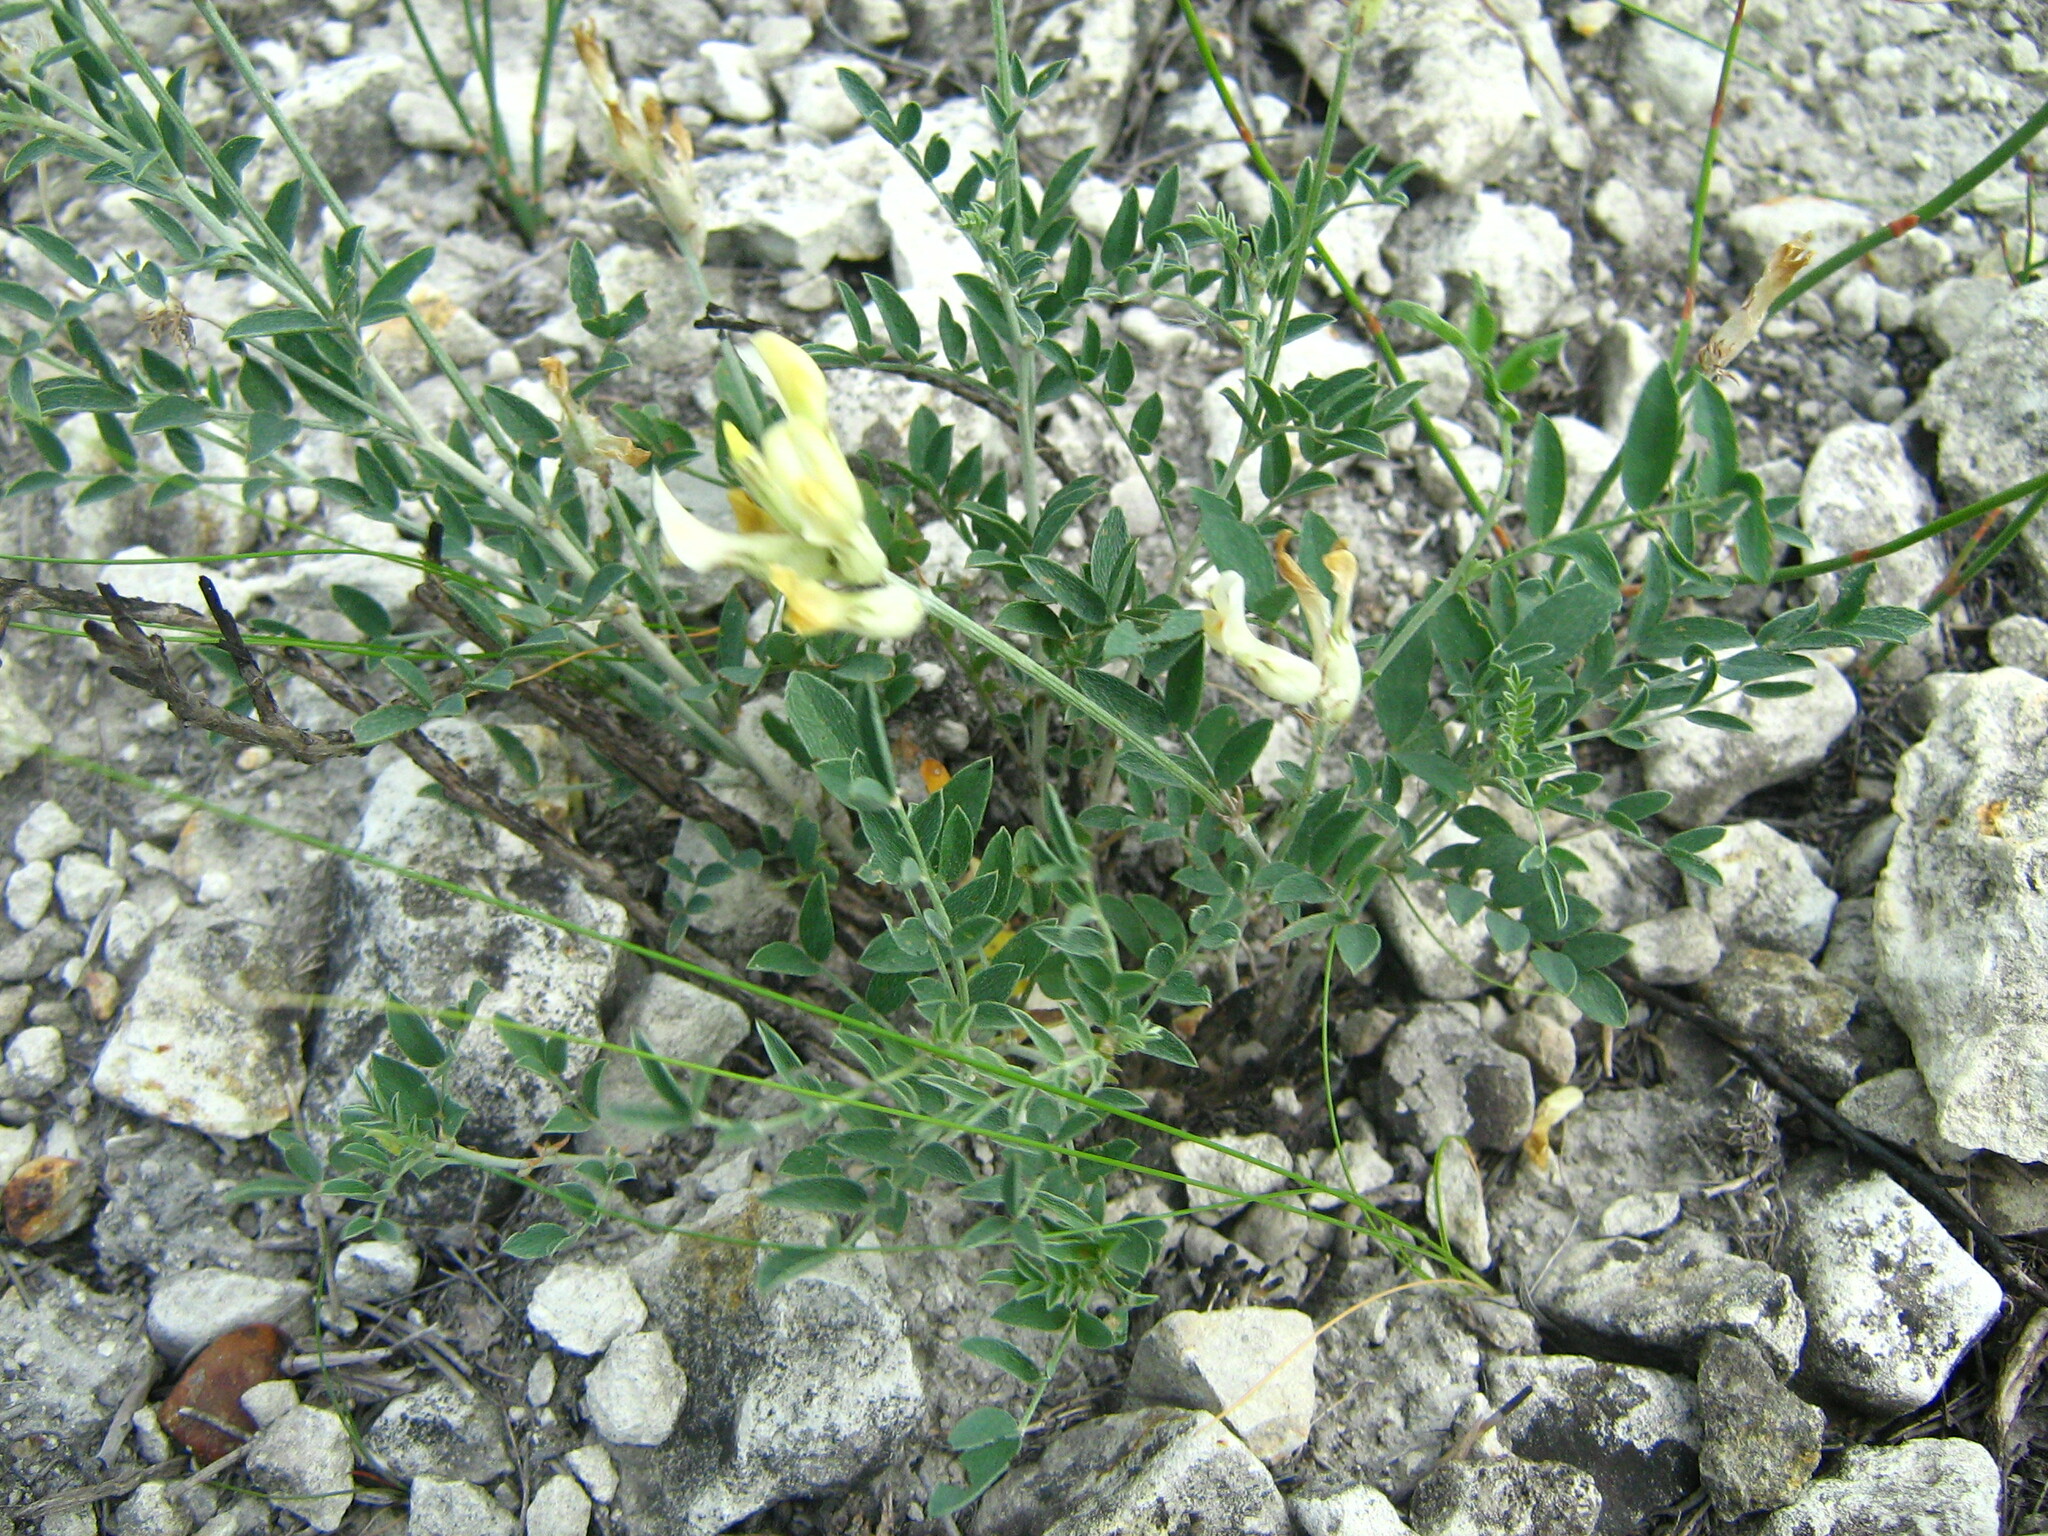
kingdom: Plantae
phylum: Tracheophyta
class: Magnoliopsida
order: Fabales
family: Fabaceae
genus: Astragalus
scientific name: Astragalus albicaulis
